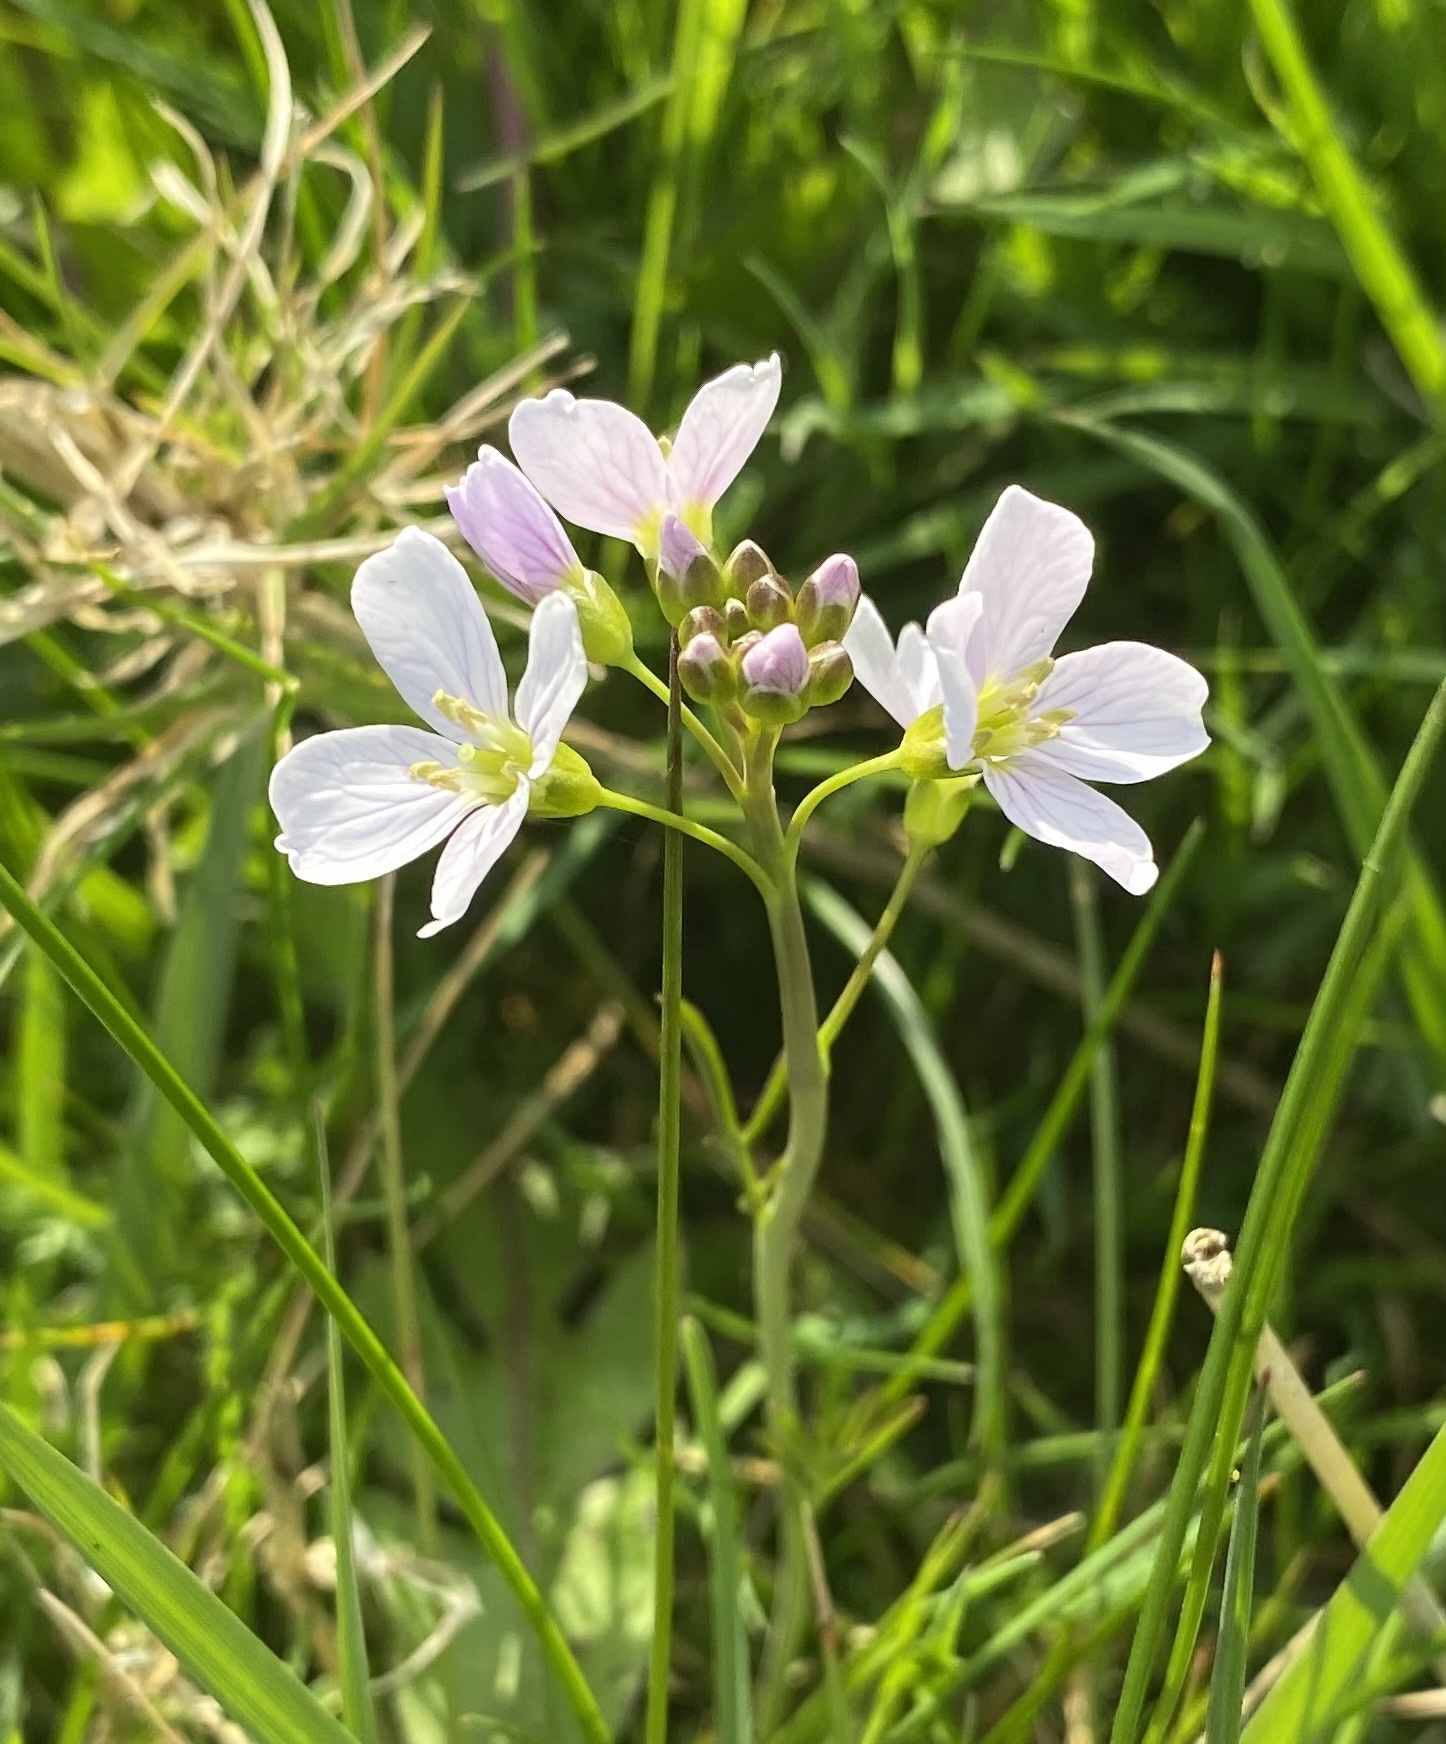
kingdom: Plantae
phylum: Tracheophyta
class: Magnoliopsida
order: Brassicales
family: Brassicaceae
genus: Cardamine
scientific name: Cardamine pratensis
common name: Cuckoo flower
